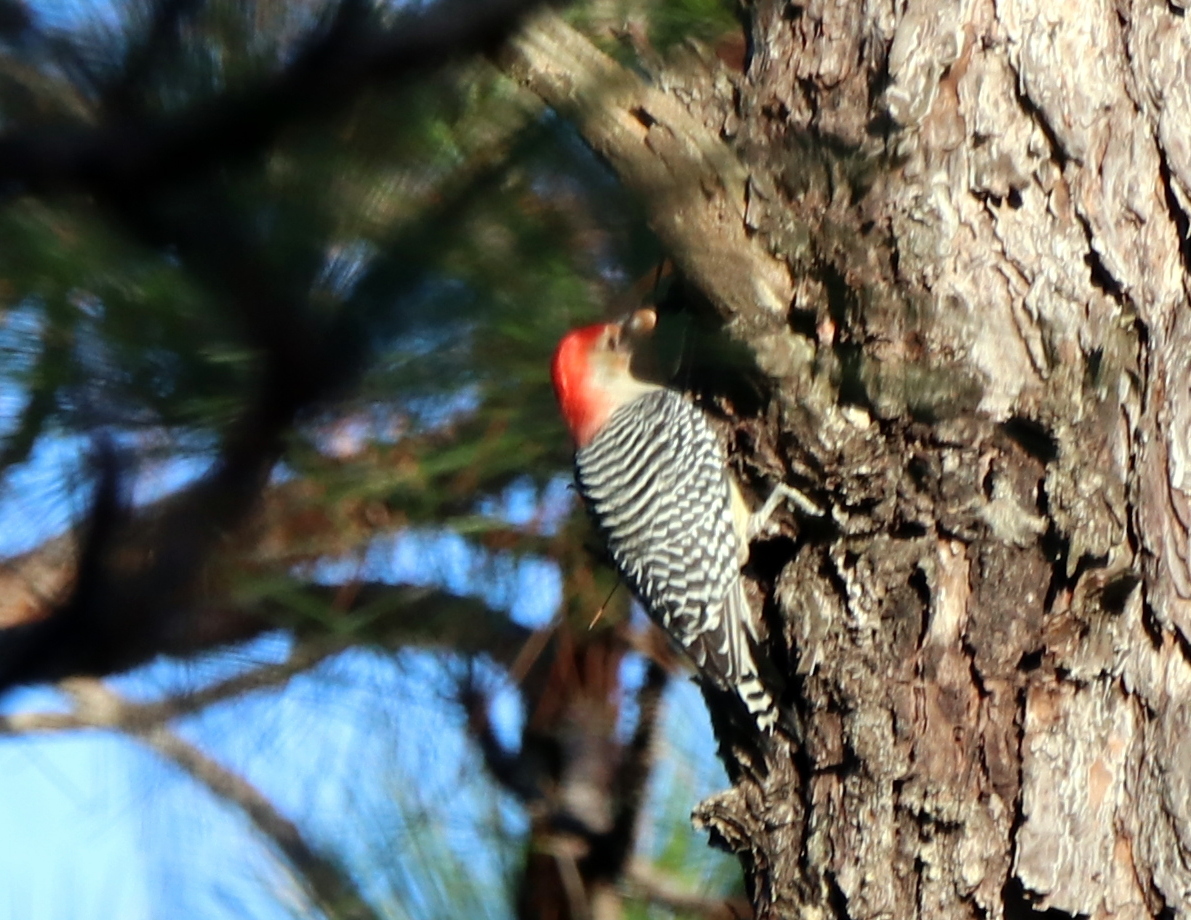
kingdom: Animalia
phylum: Chordata
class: Aves
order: Piciformes
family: Picidae
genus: Melanerpes
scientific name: Melanerpes carolinus
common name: Red-bellied woodpecker
